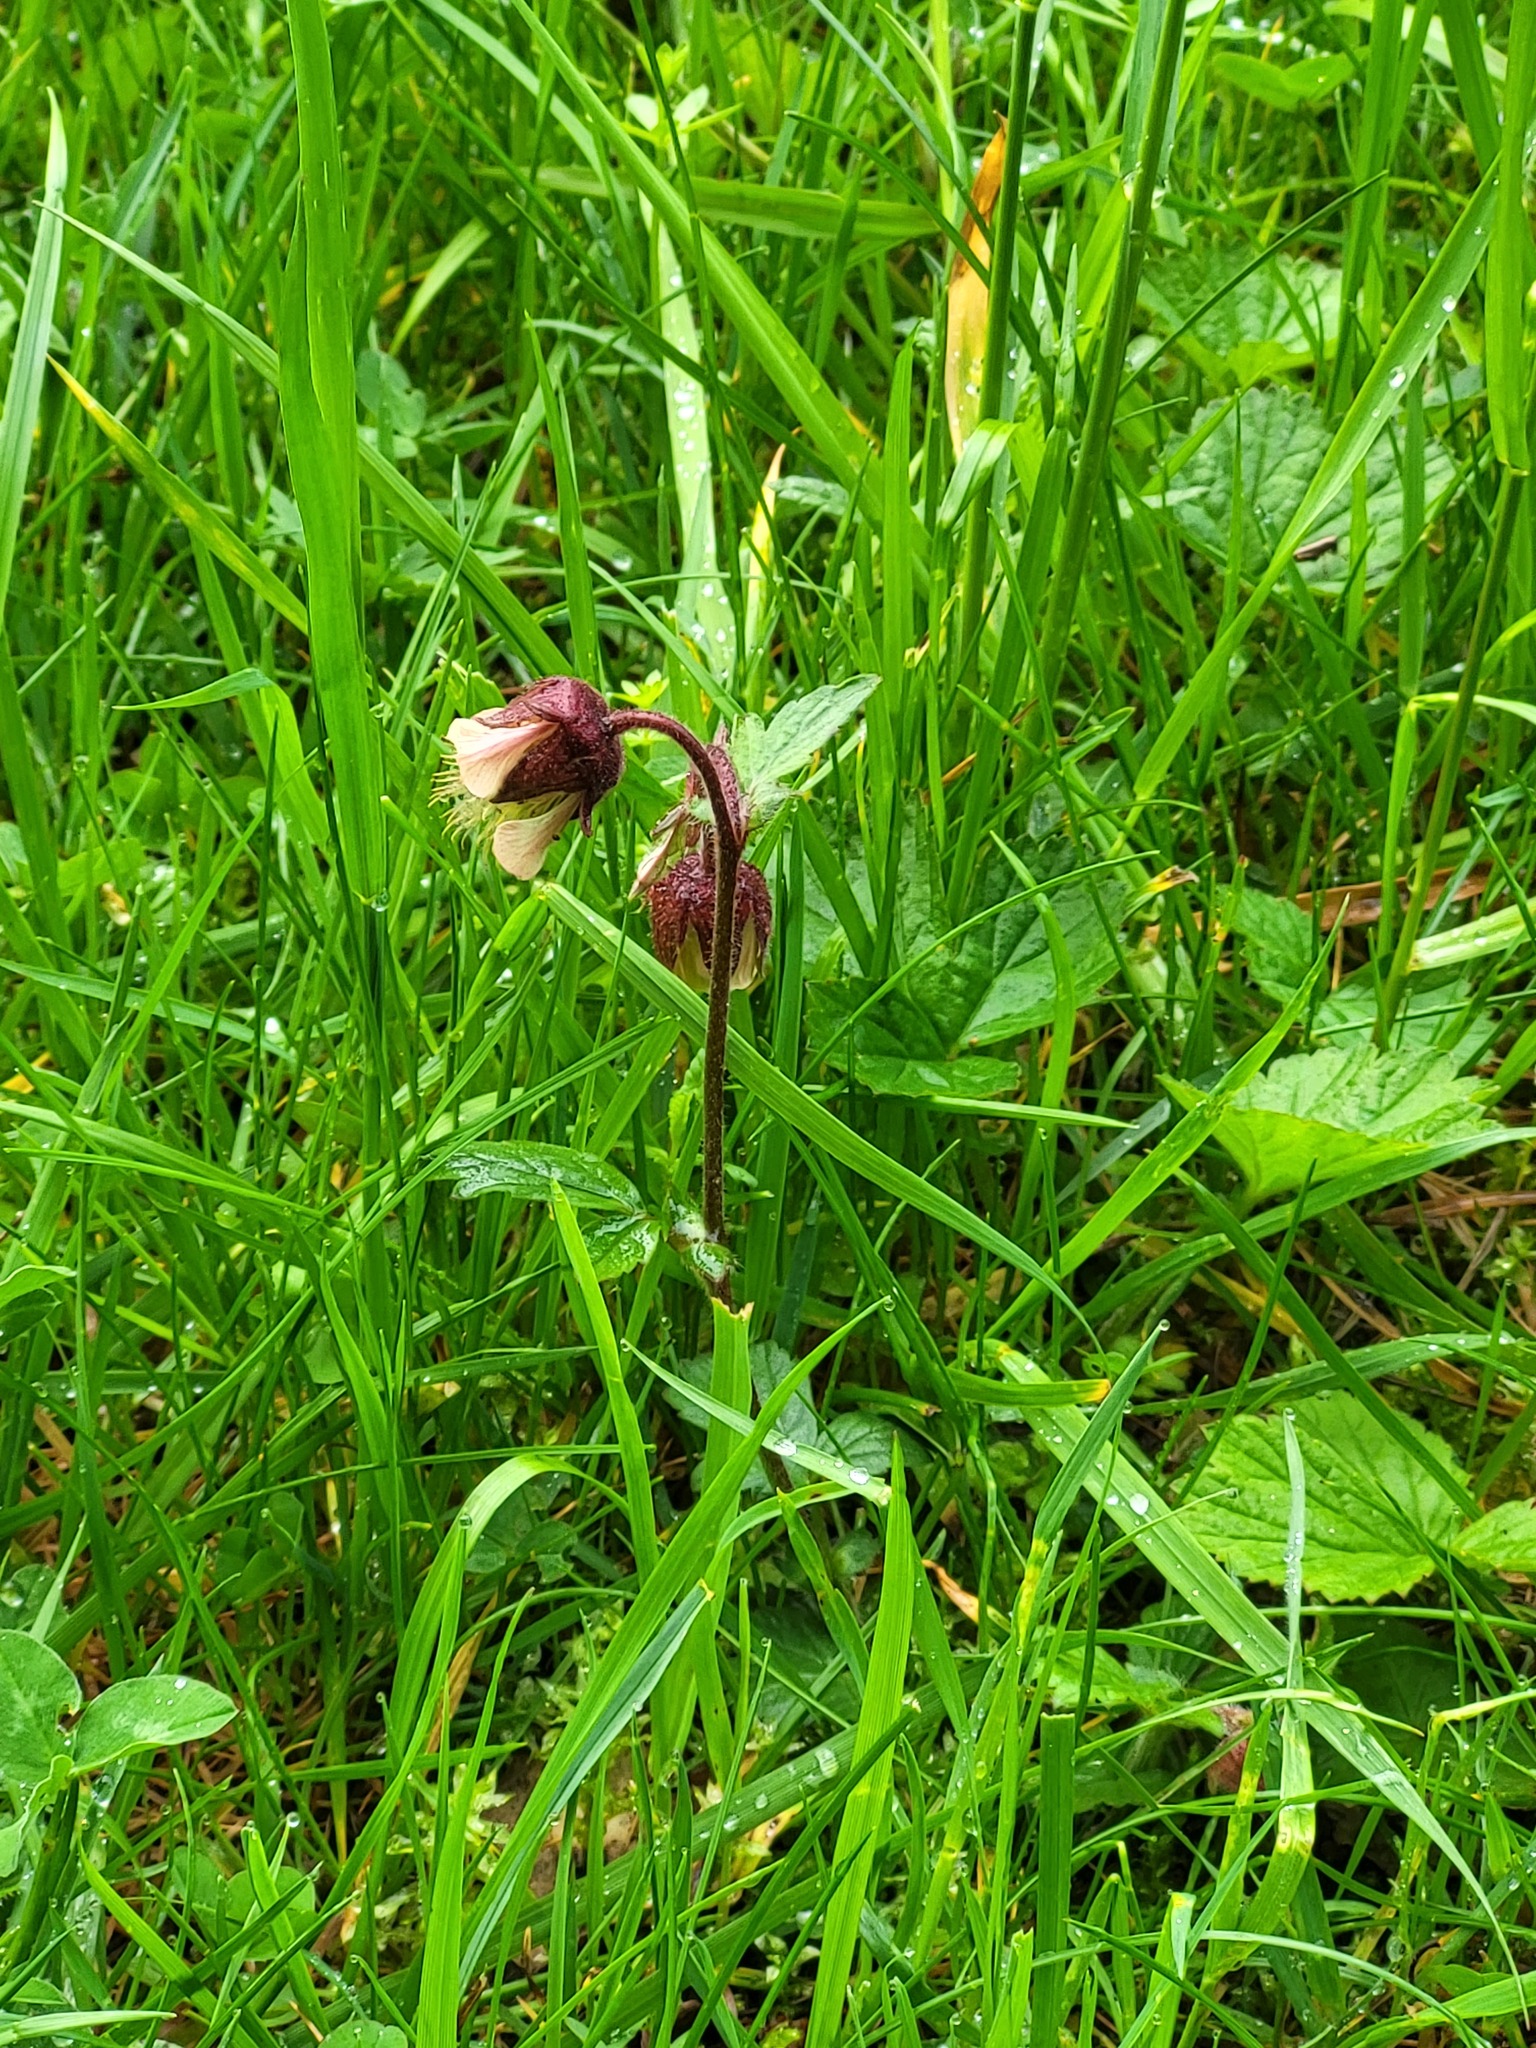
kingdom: Plantae
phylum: Tracheophyta
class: Magnoliopsida
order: Rosales
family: Rosaceae
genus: Geum
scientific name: Geum rivale
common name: Water avens
